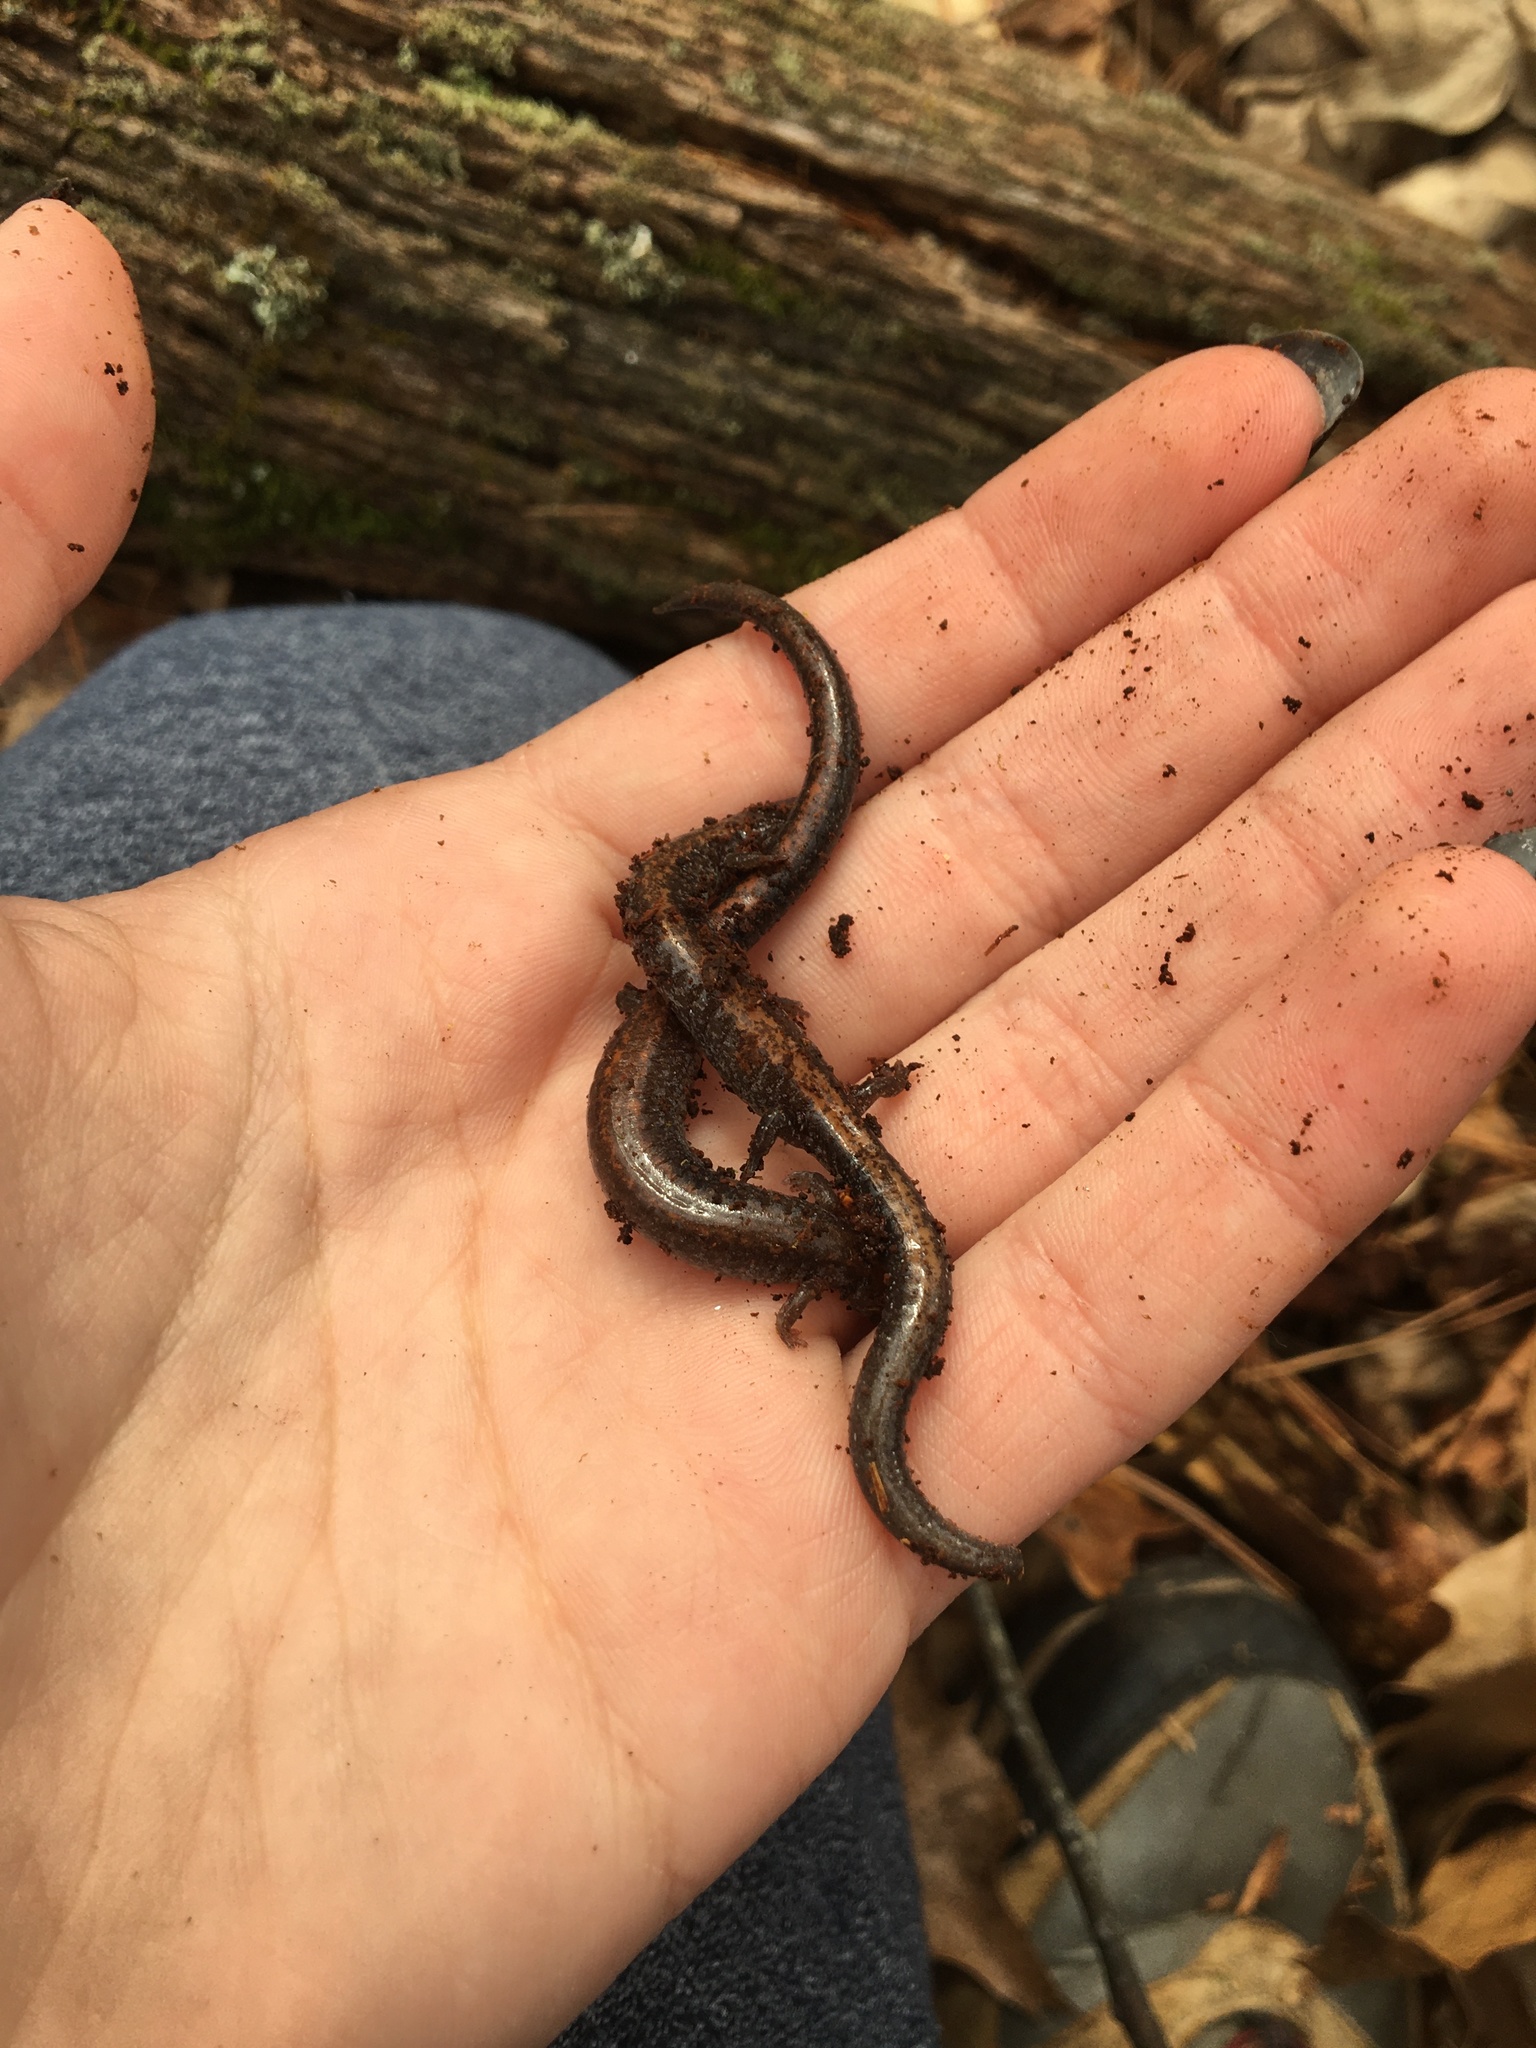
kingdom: Animalia
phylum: Chordata
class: Amphibia
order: Caudata
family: Plethodontidae
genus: Plethodon
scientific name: Plethodon cinereus
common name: Redback salamander
